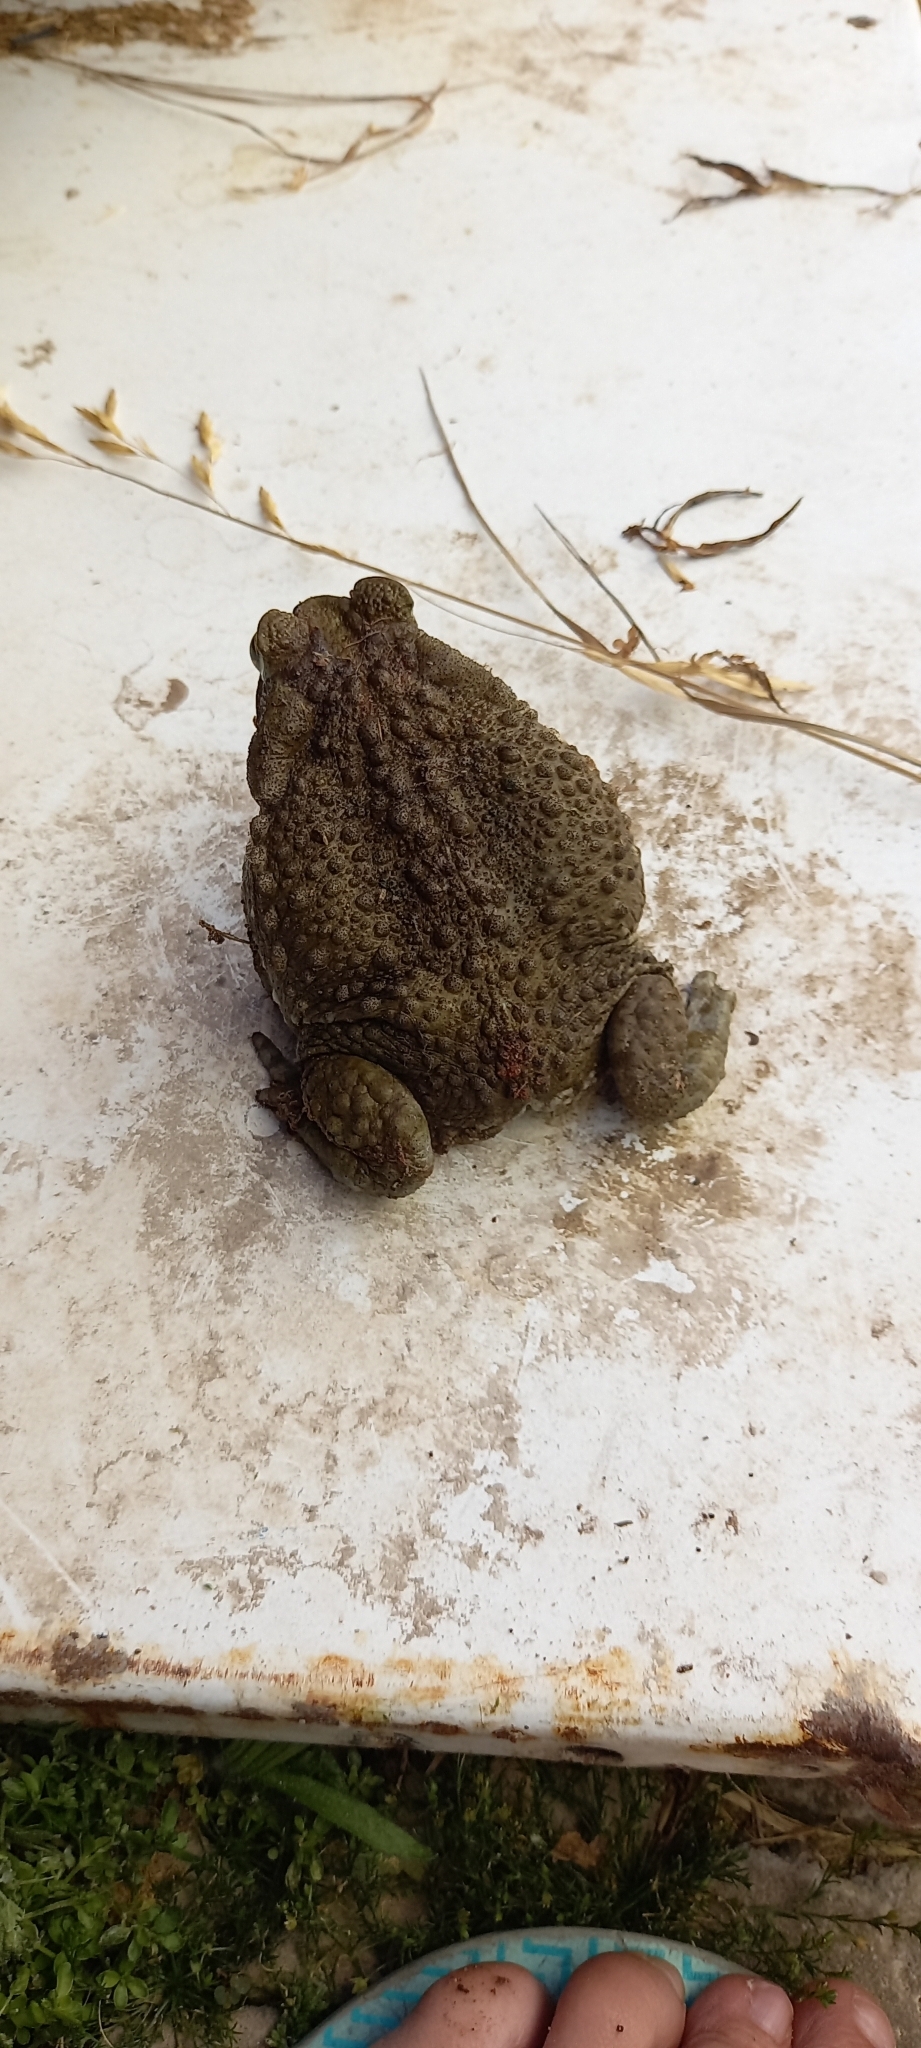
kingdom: Animalia
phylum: Chordata
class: Amphibia
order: Anura
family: Bufonidae
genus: Rhinella
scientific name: Rhinella arenarum
